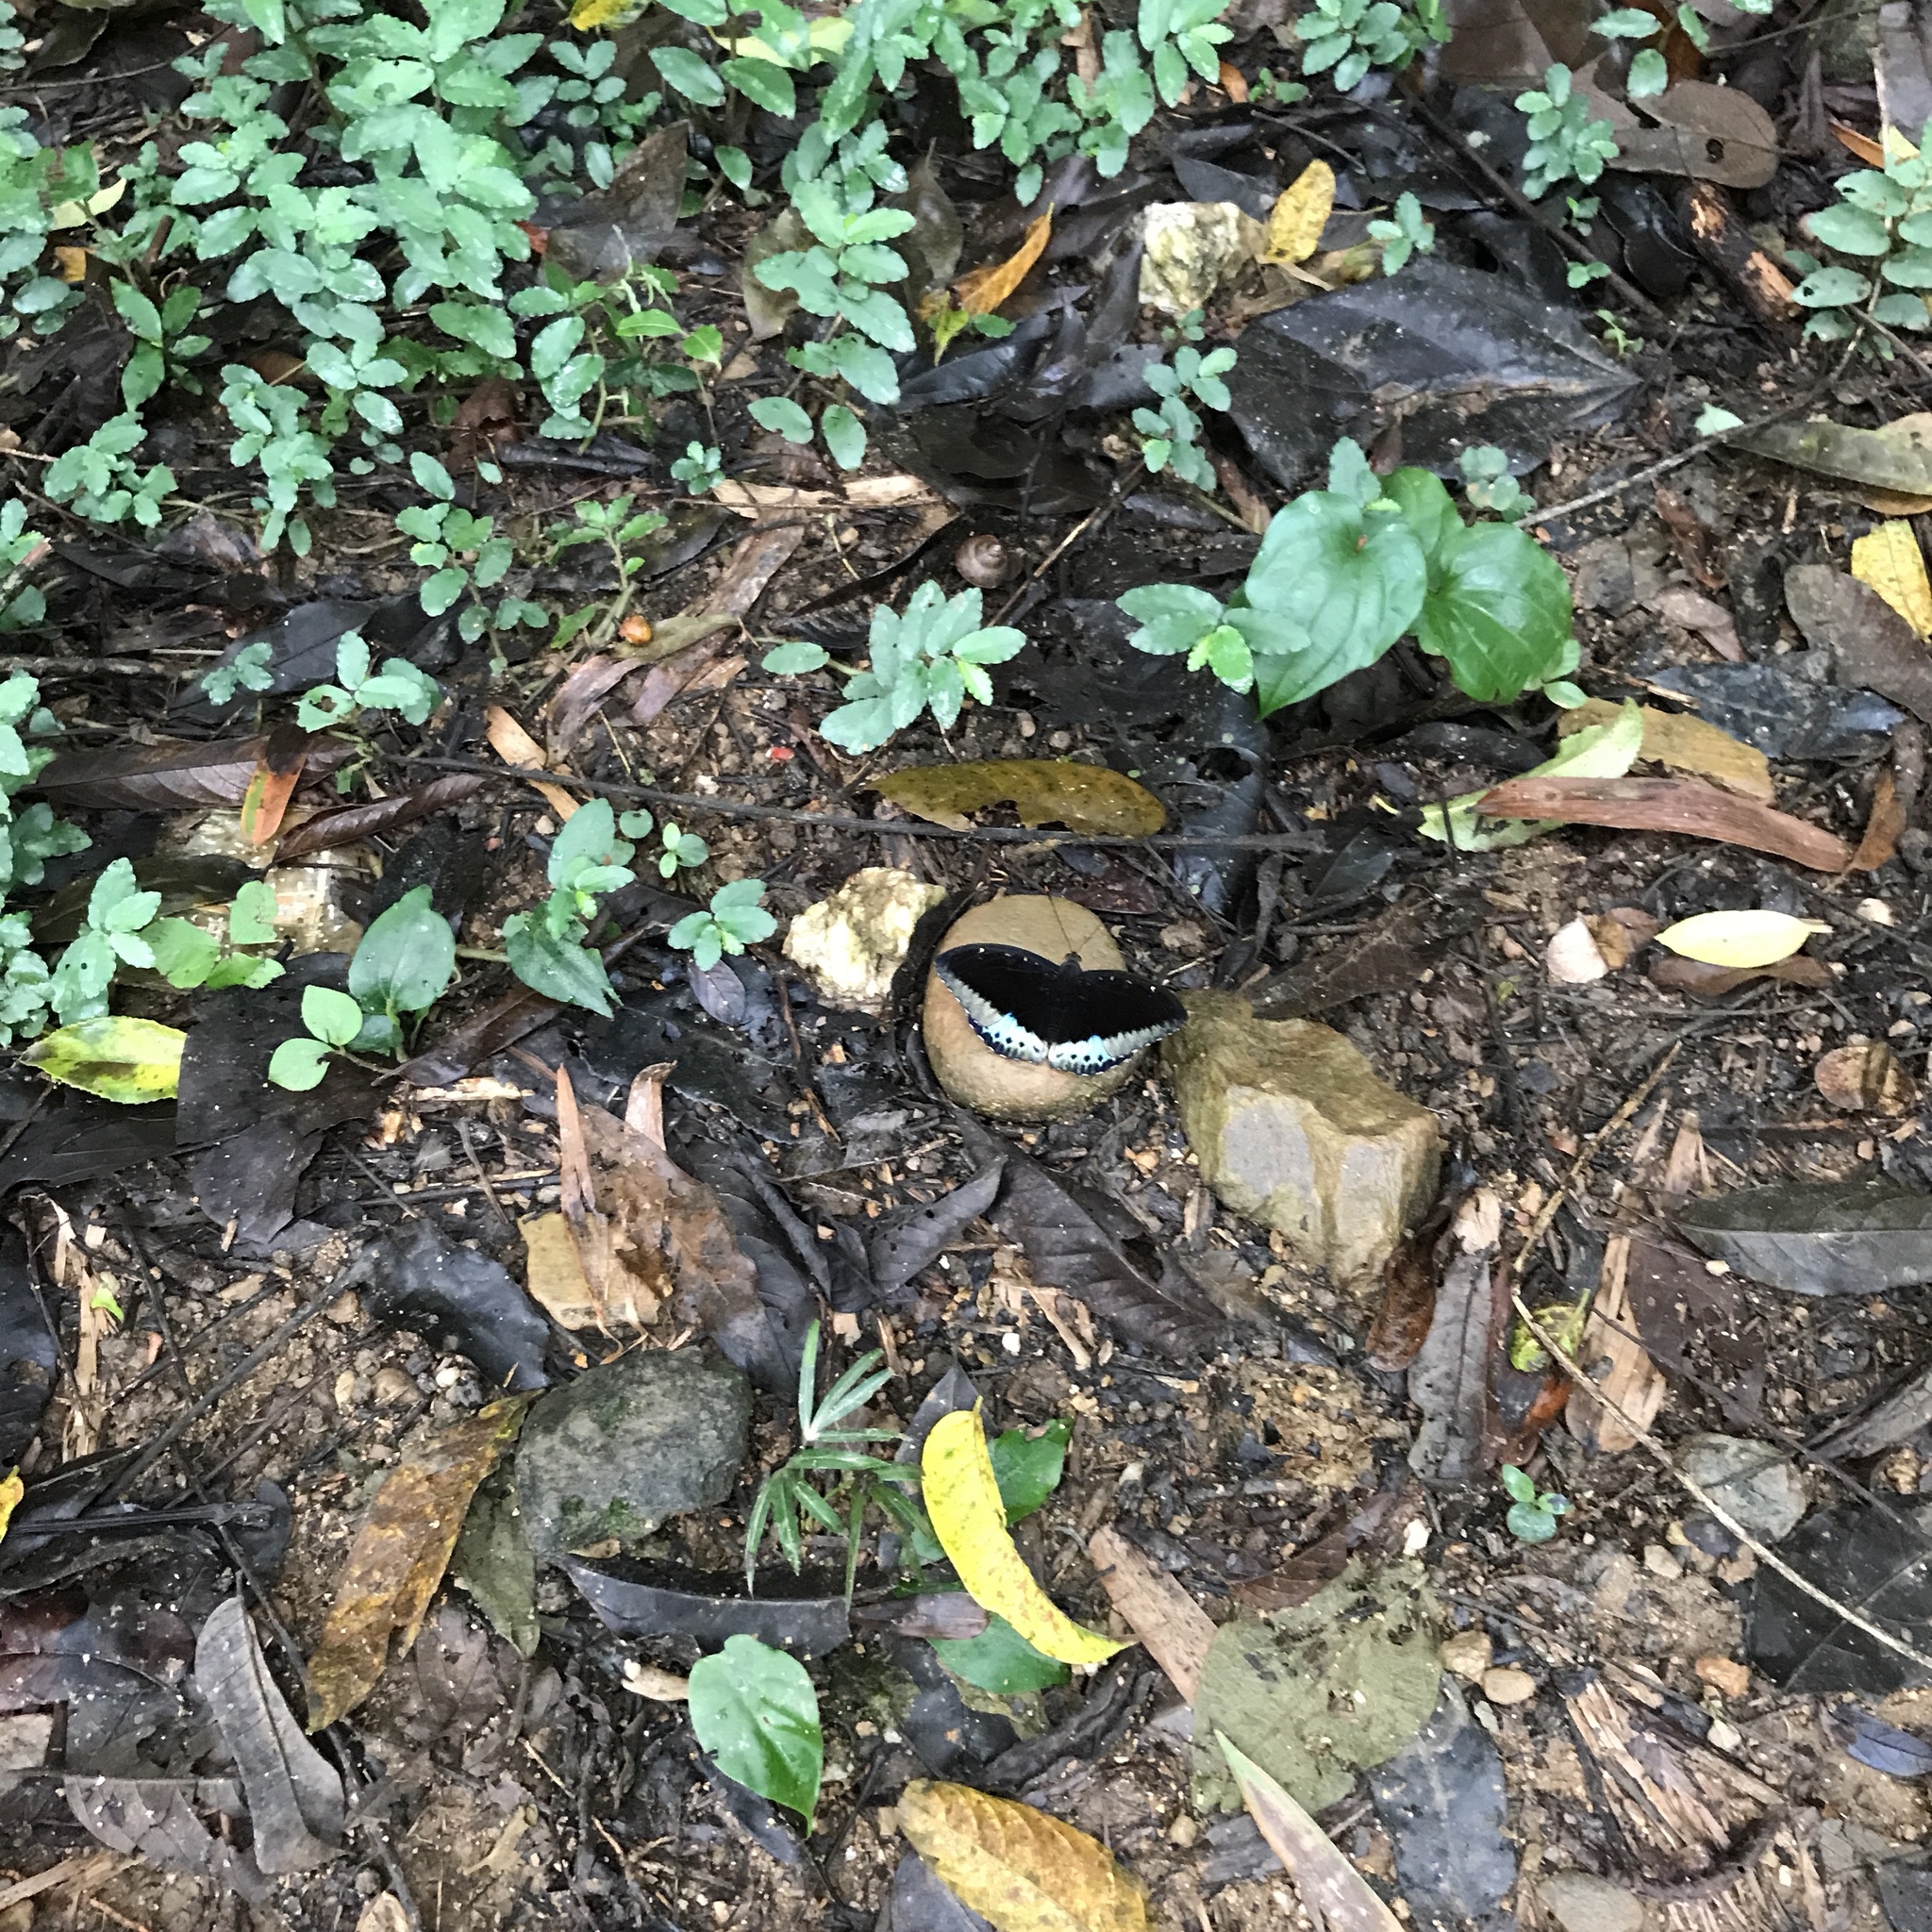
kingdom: Animalia
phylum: Arthropoda
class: Insecta
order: Lepidoptera
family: Nymphalidae
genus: Lexias
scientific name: Lexias pardalis
